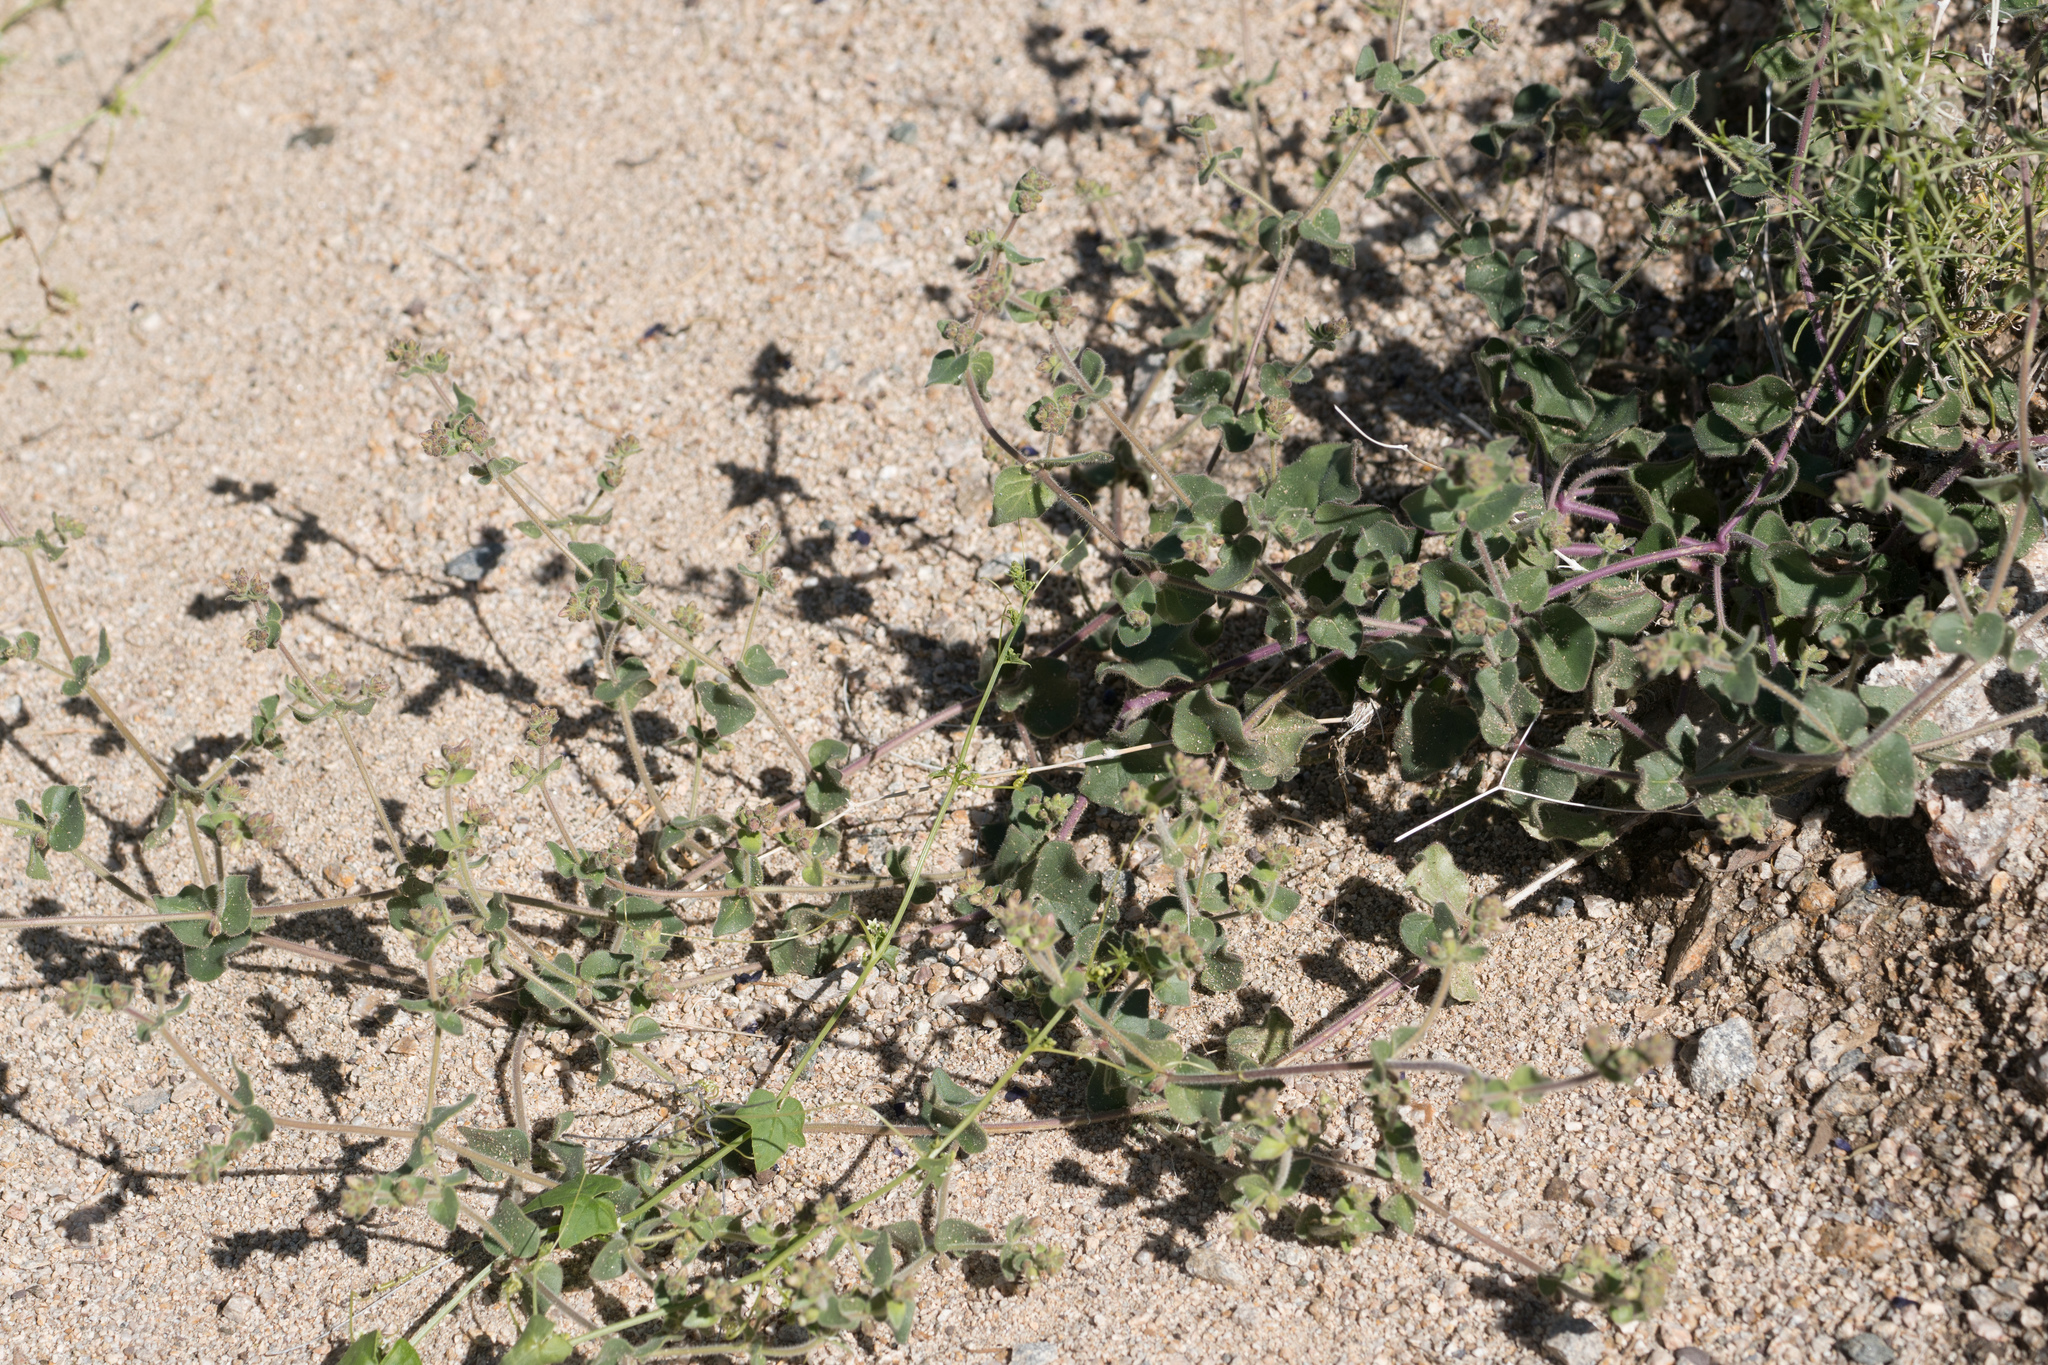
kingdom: Plantae
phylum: Tracheophyta
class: Magnoliopsida
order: Caryophyllales
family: Nyctaginaceae
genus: Mirabilis
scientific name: Mirabilis laevis
